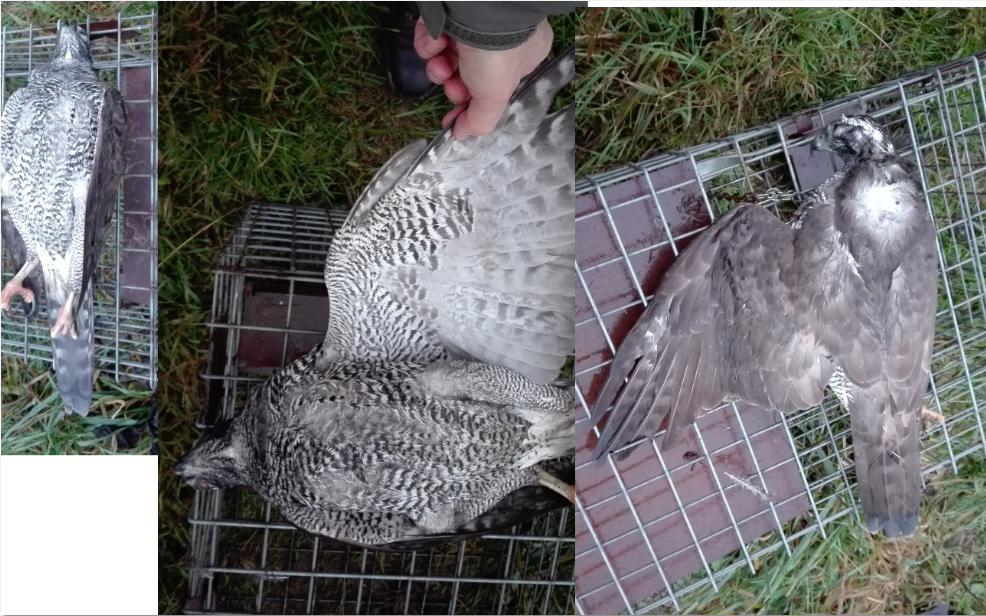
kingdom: Animalia
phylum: Chordata
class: Aves
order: Accipitriformes
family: Accipitridae
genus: Accipiter
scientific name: Accipiter gentilis
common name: Northern goshawk
